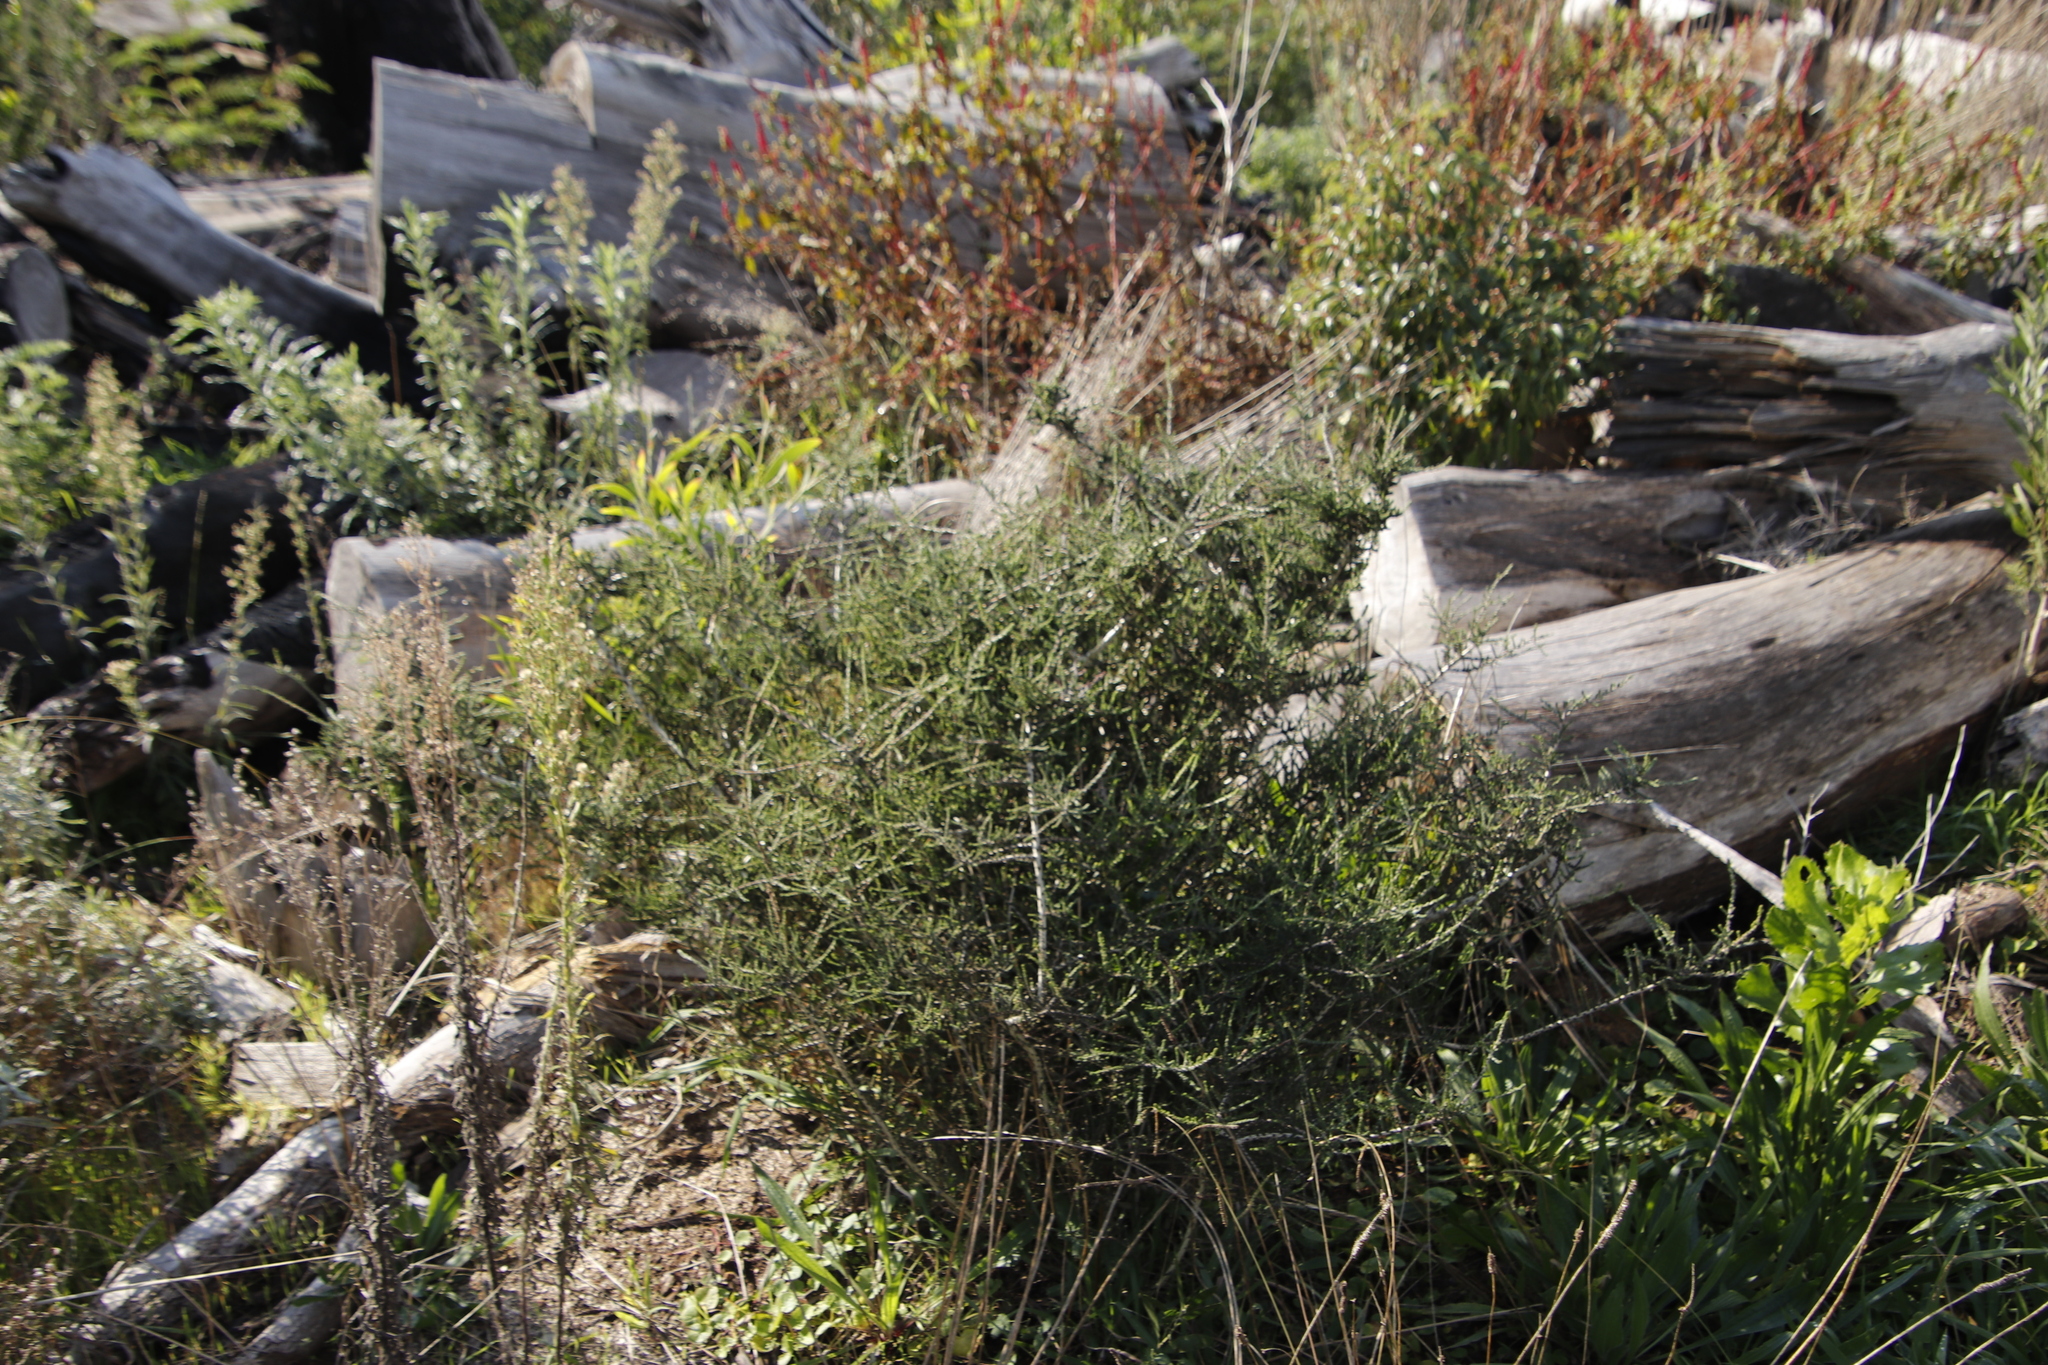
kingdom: Plantae
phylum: Tracheophyta
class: Magnoliopsida
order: Fabales
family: Fabaceae
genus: Aspalathus
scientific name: Aspalathus hispida
